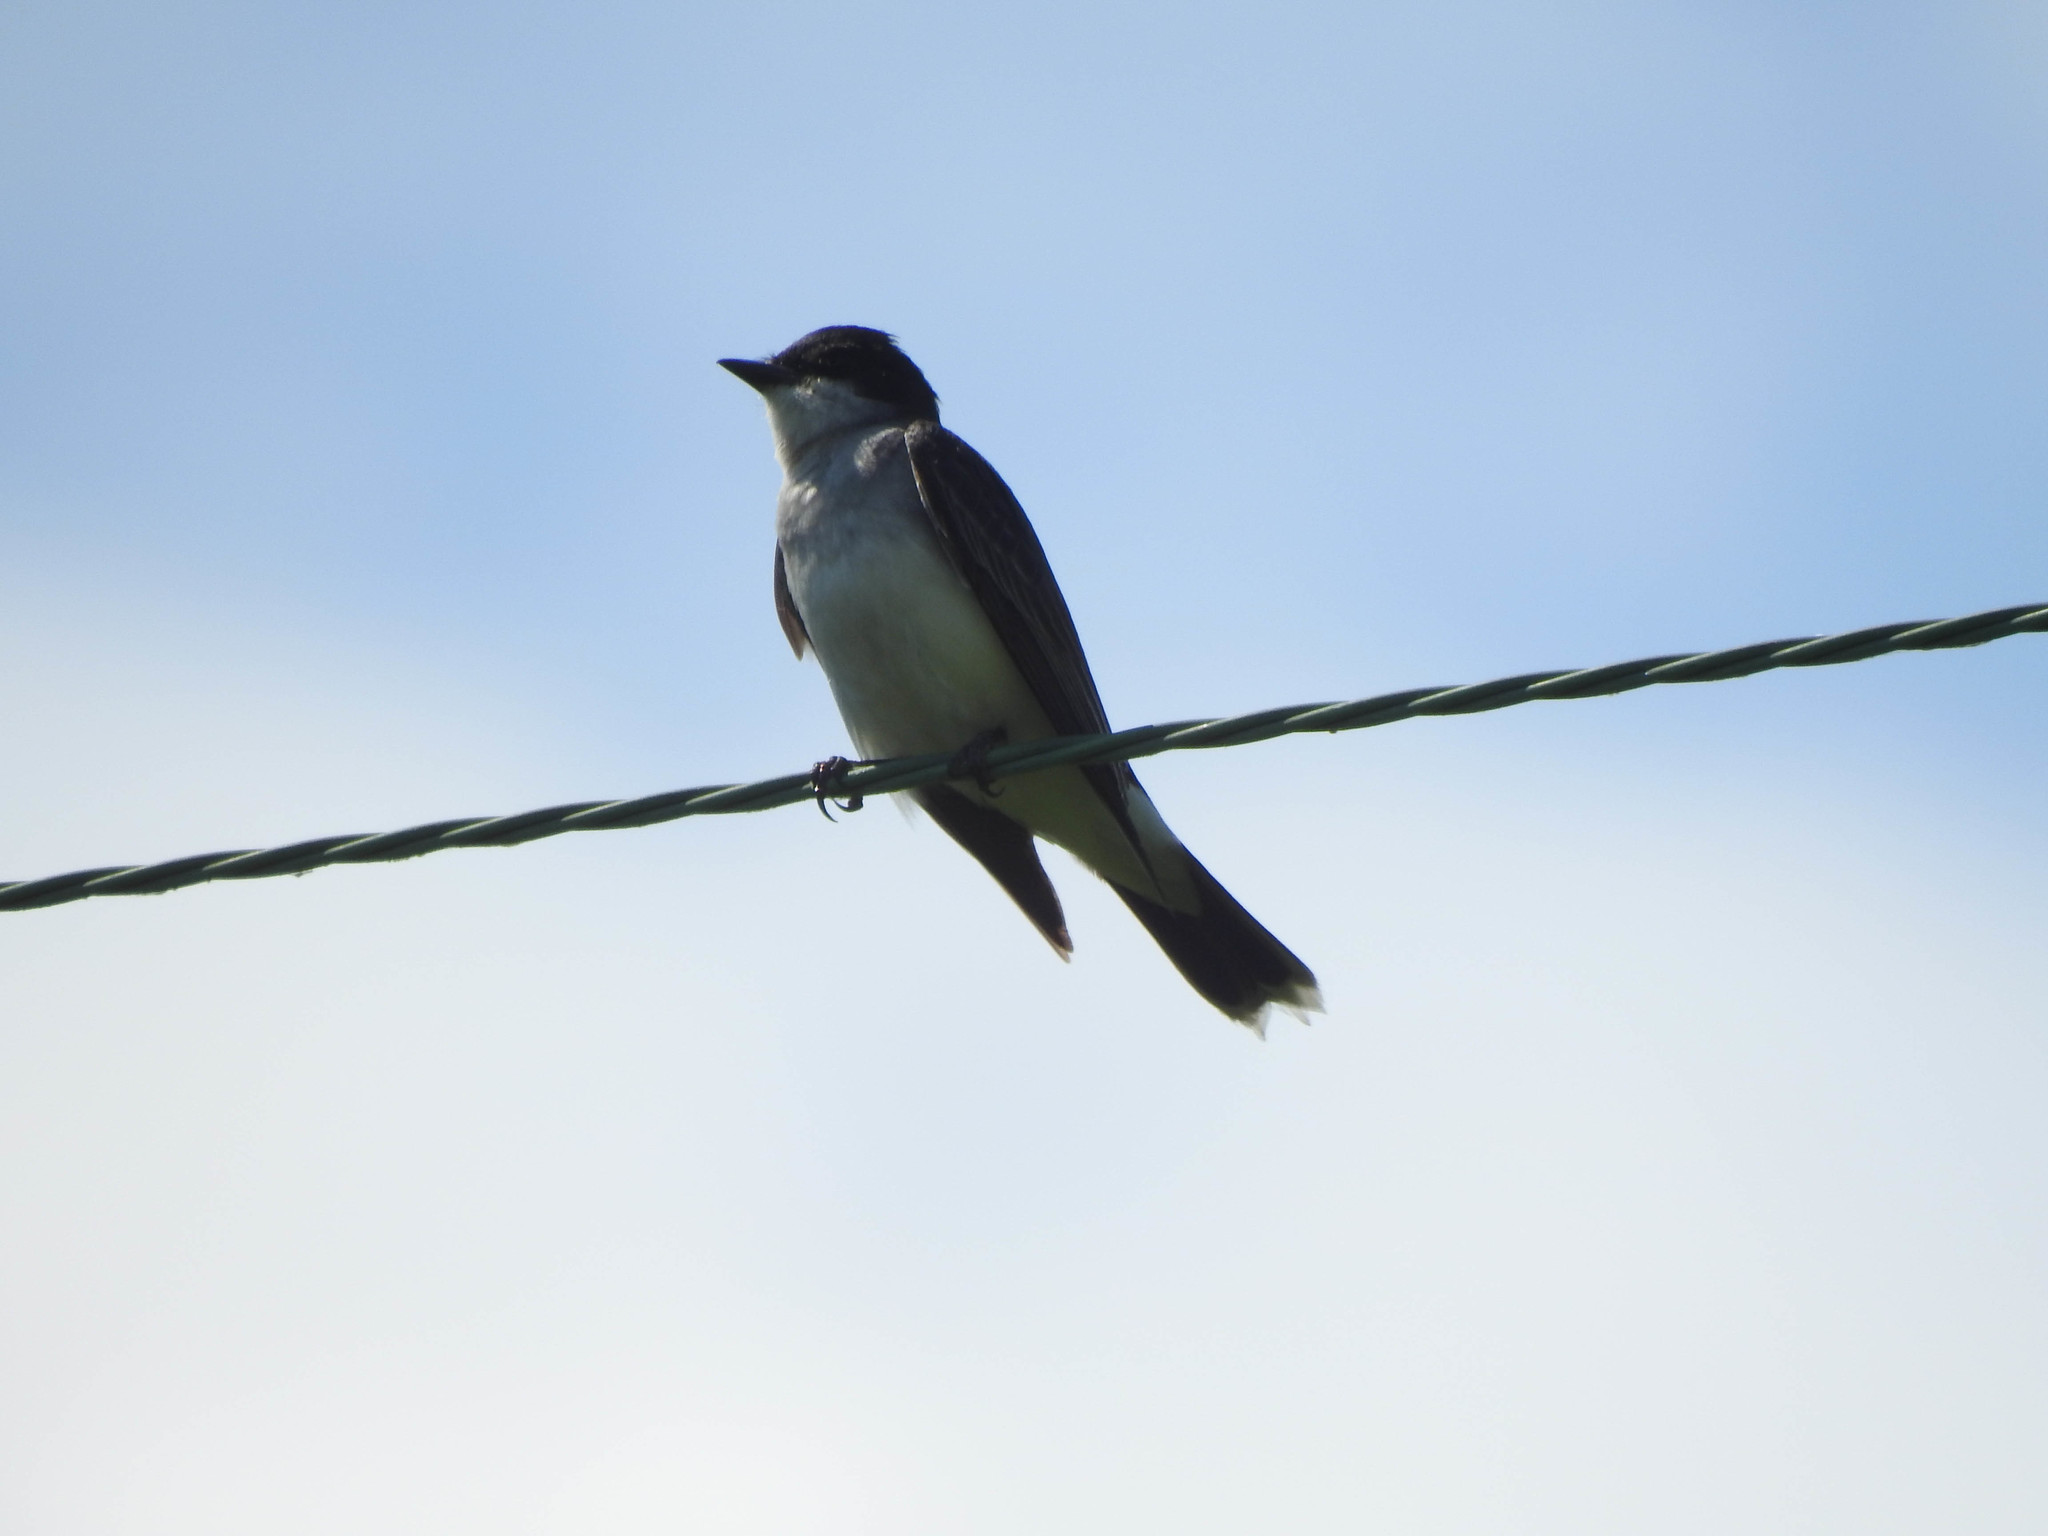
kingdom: Animalia
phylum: Chordata
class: Aves
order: Passeriformes
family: Tyrannidae
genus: Tyrannus
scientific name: Tyrannus tyrannus
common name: Eastern kingbird
